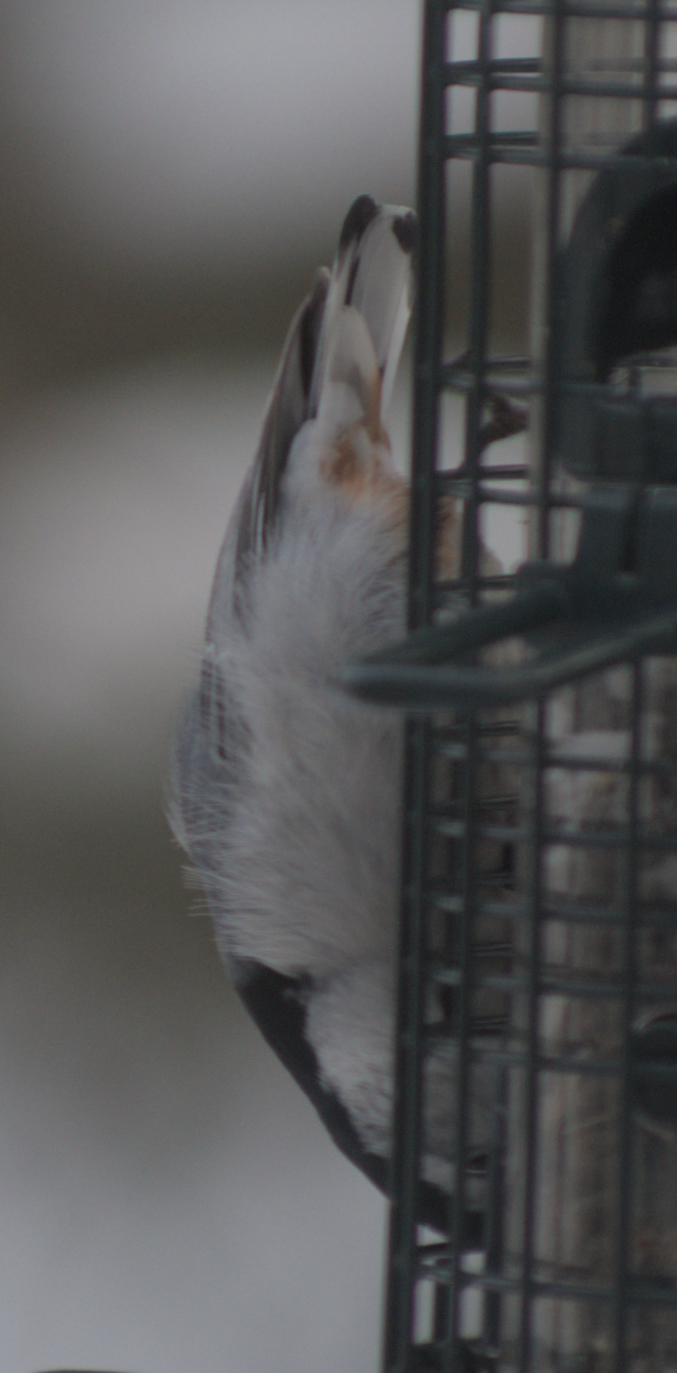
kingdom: Animalia
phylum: Chordata
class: Aves
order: Passeriformes
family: Sittidae
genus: Sitta
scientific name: Sitta carolinensis
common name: White-breasted nuthatch
